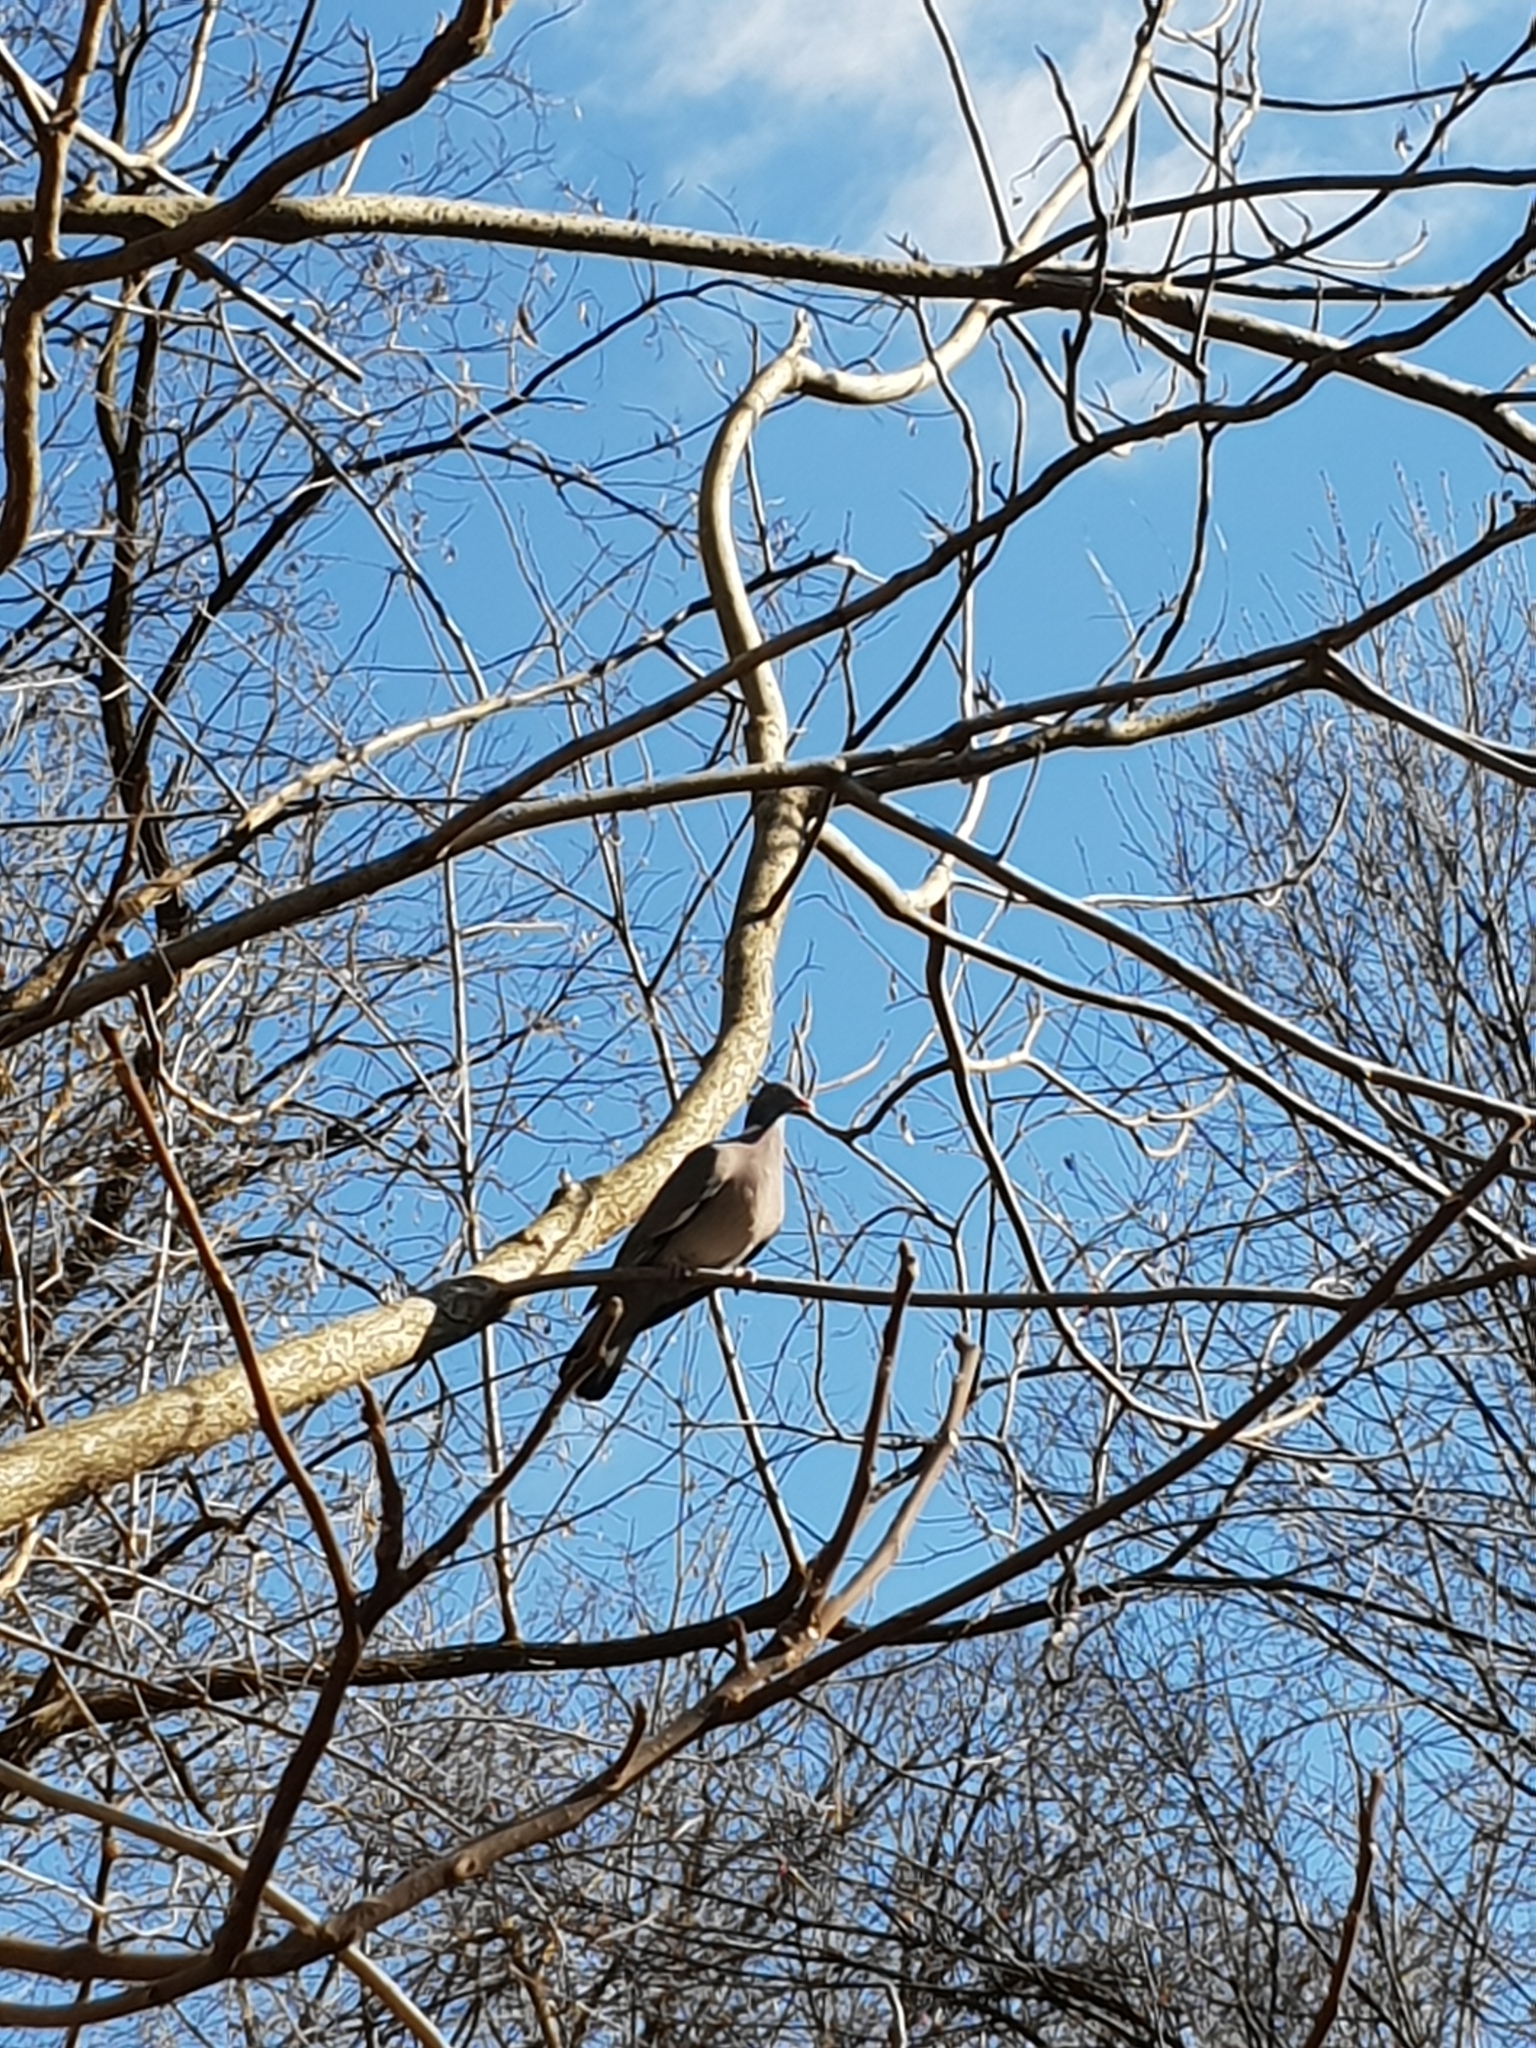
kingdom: Animalia
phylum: Chordata
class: Aves
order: Columbiformes
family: Columbidae
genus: Columba
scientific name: Columba palumbus
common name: Common wood pigeon
